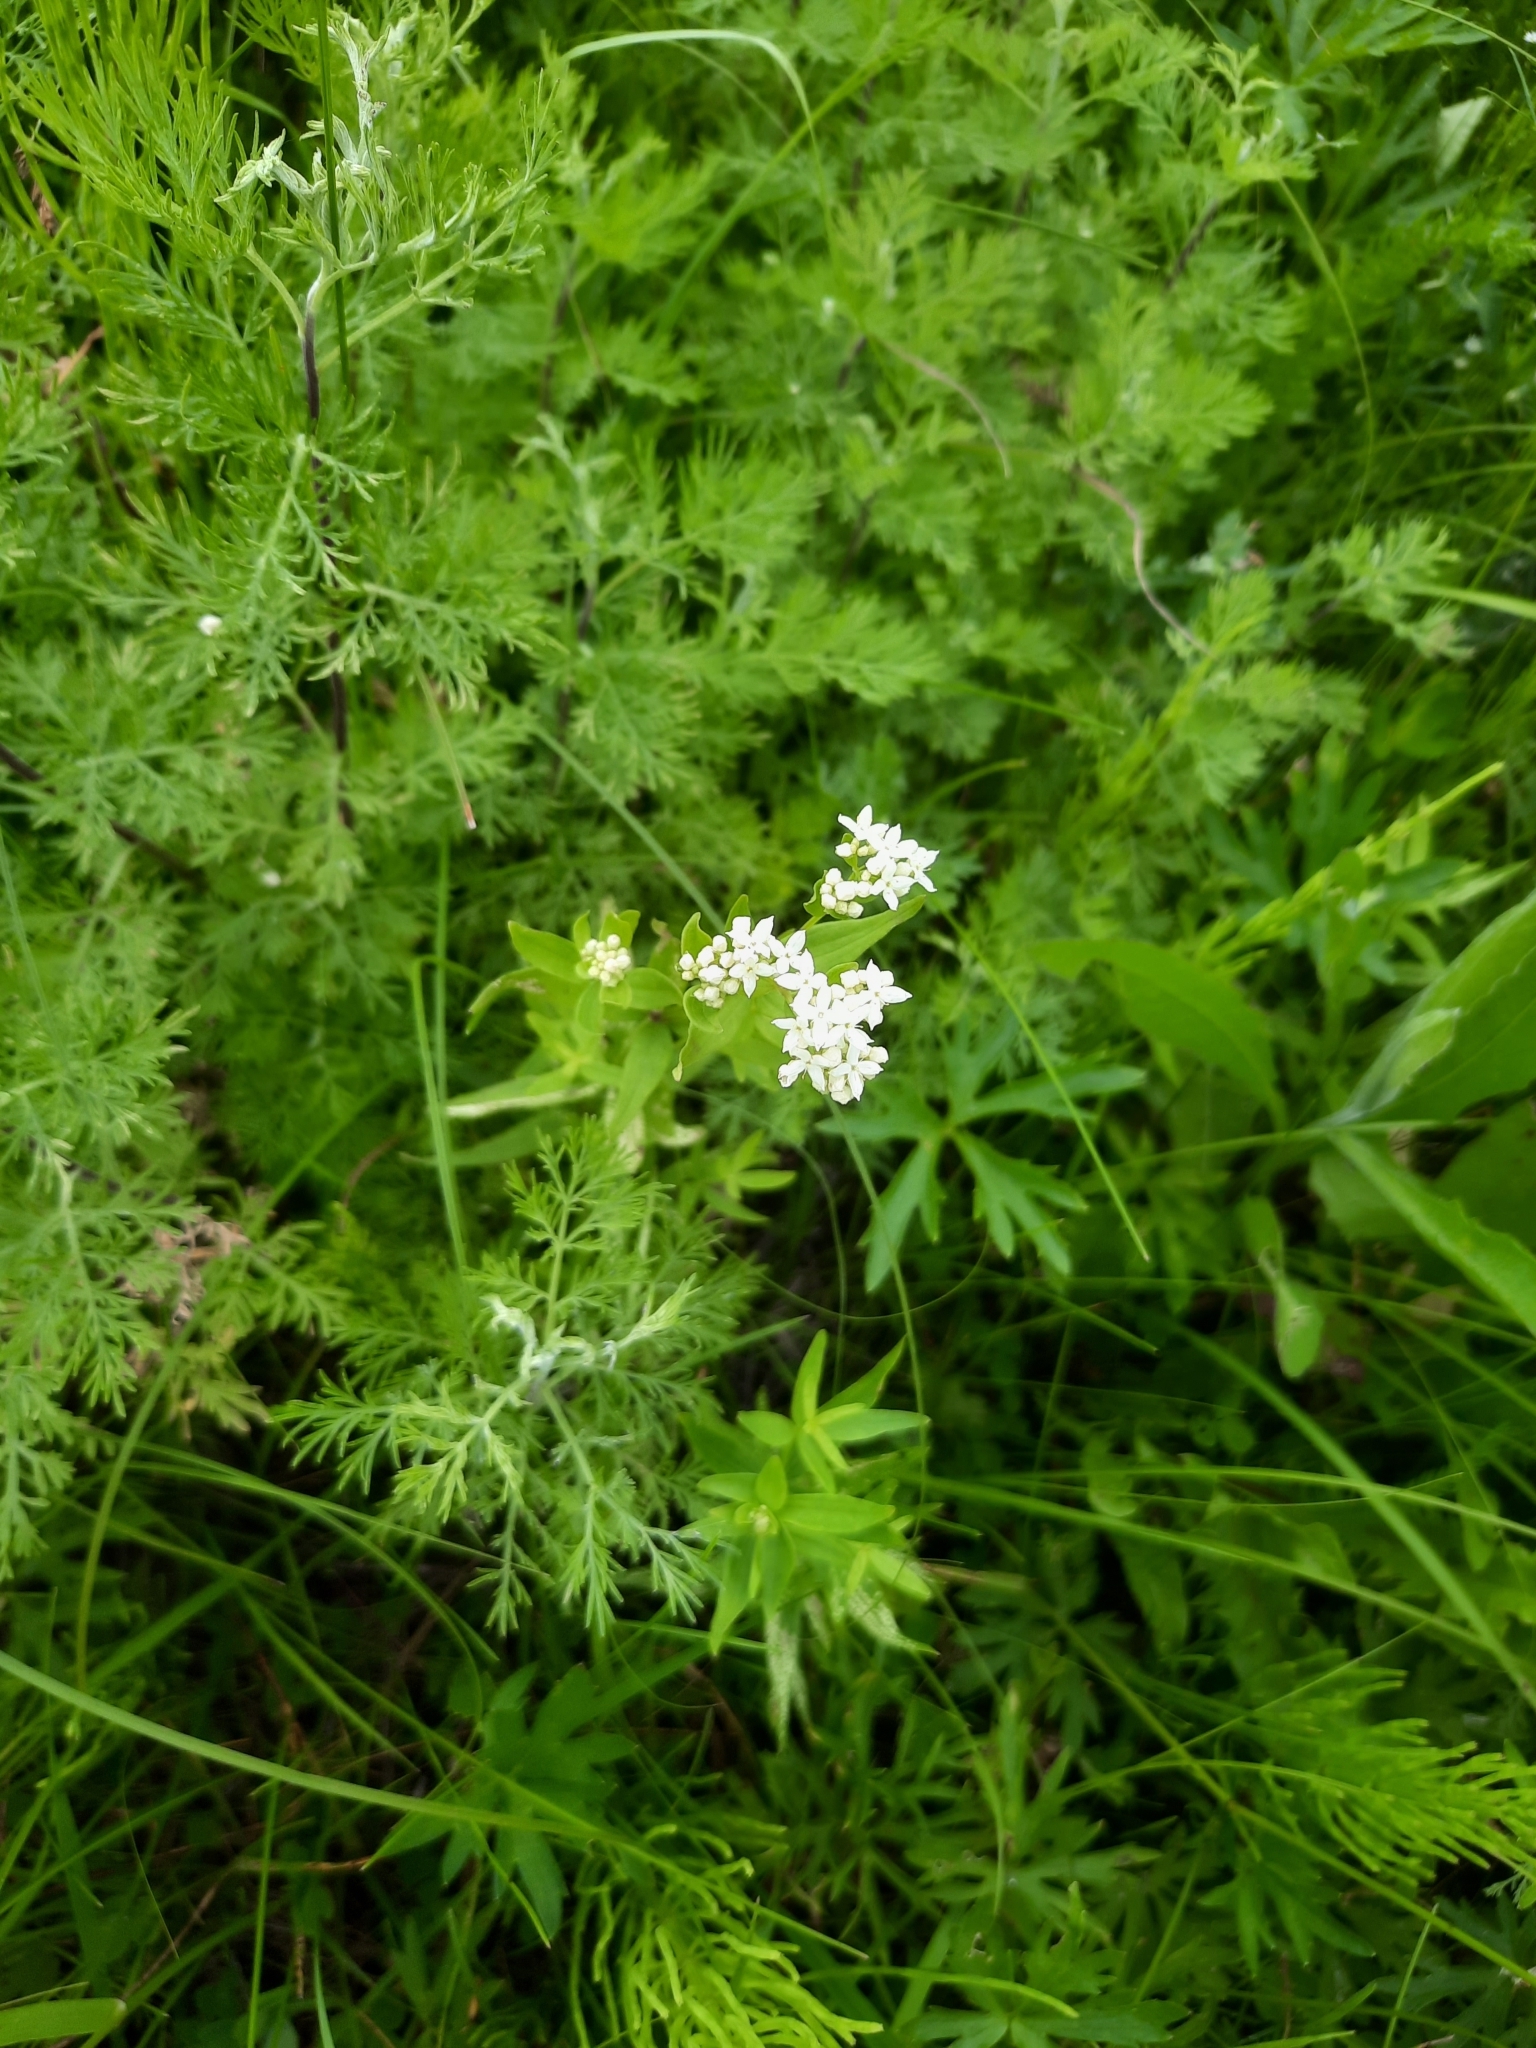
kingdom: Plantae
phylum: Tracheophyta
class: Magnoliopsida
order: Gentianales
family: Rubiaceae
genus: Galium
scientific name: Galium boreale
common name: Northern bedstraw
